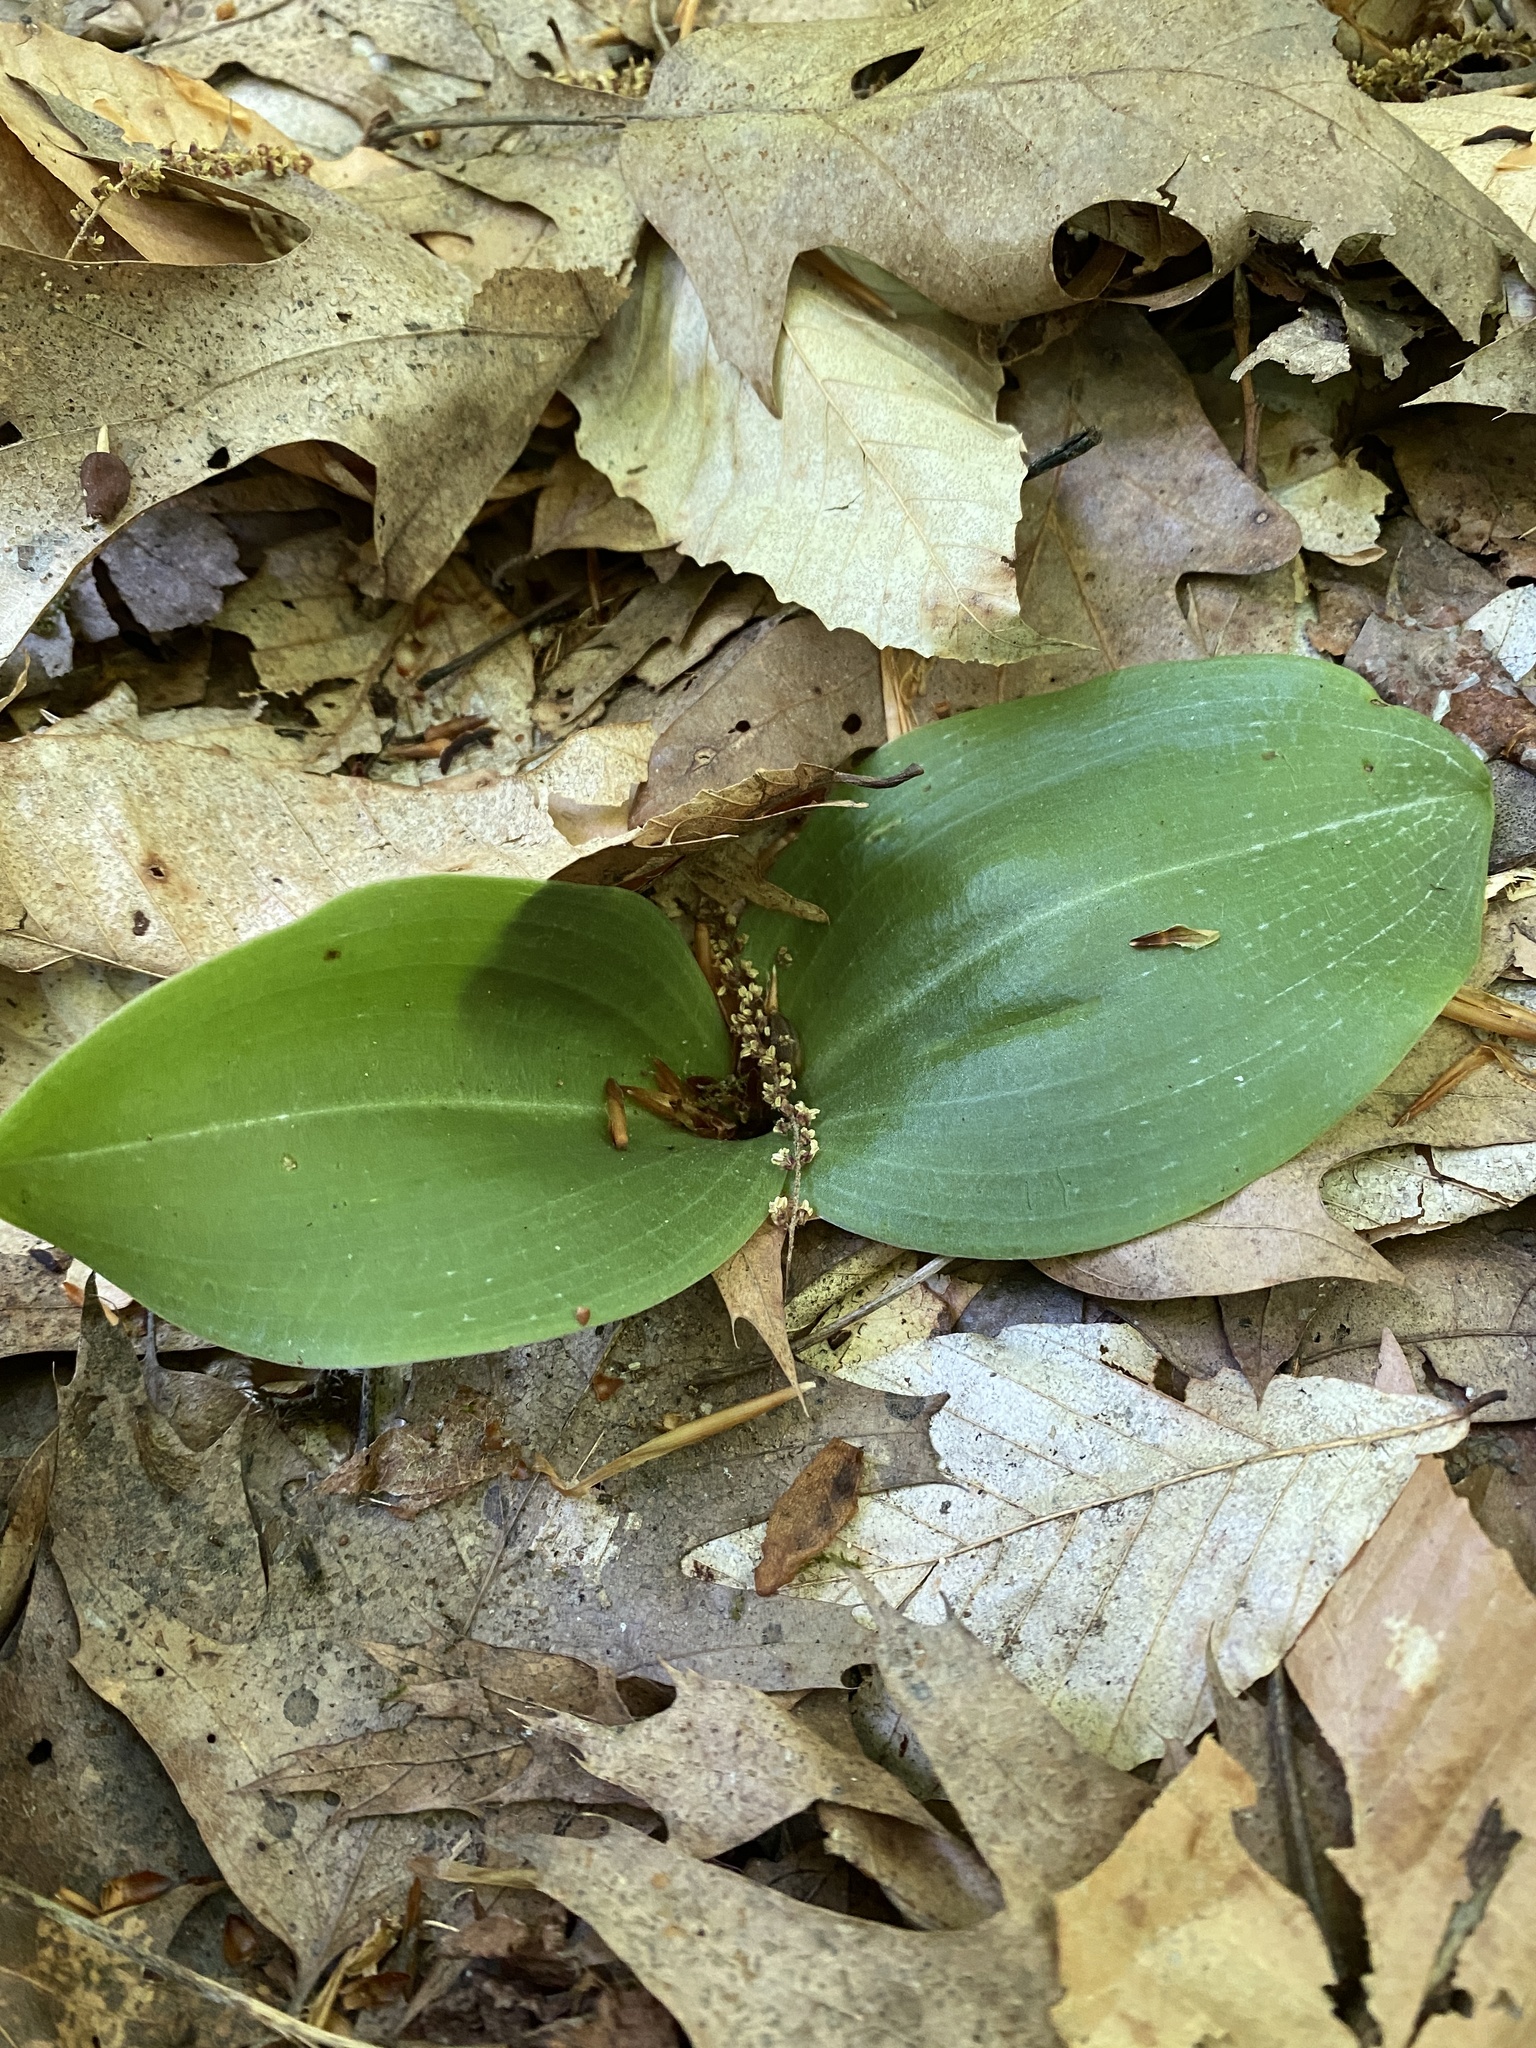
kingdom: Plantae
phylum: Tracheophyta
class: Liliopsida
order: Asparagales
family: Orchidaceae
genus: Platanthera
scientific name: Platanthera orbiculata
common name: Large round-leaved orchid
